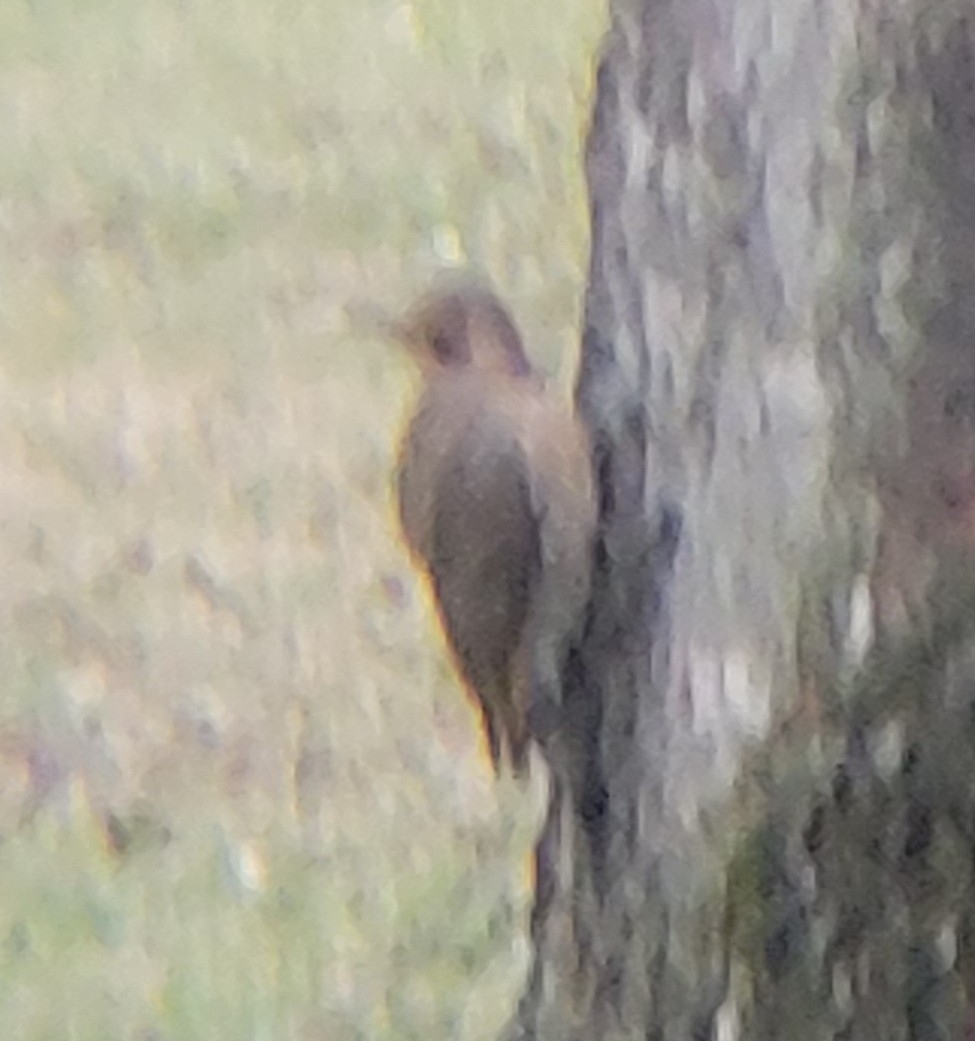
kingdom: Animalia
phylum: Chordata
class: Aves
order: Piciformes
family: Picidae
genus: Colaptes
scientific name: Colaptes auratus
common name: Northern flicker
